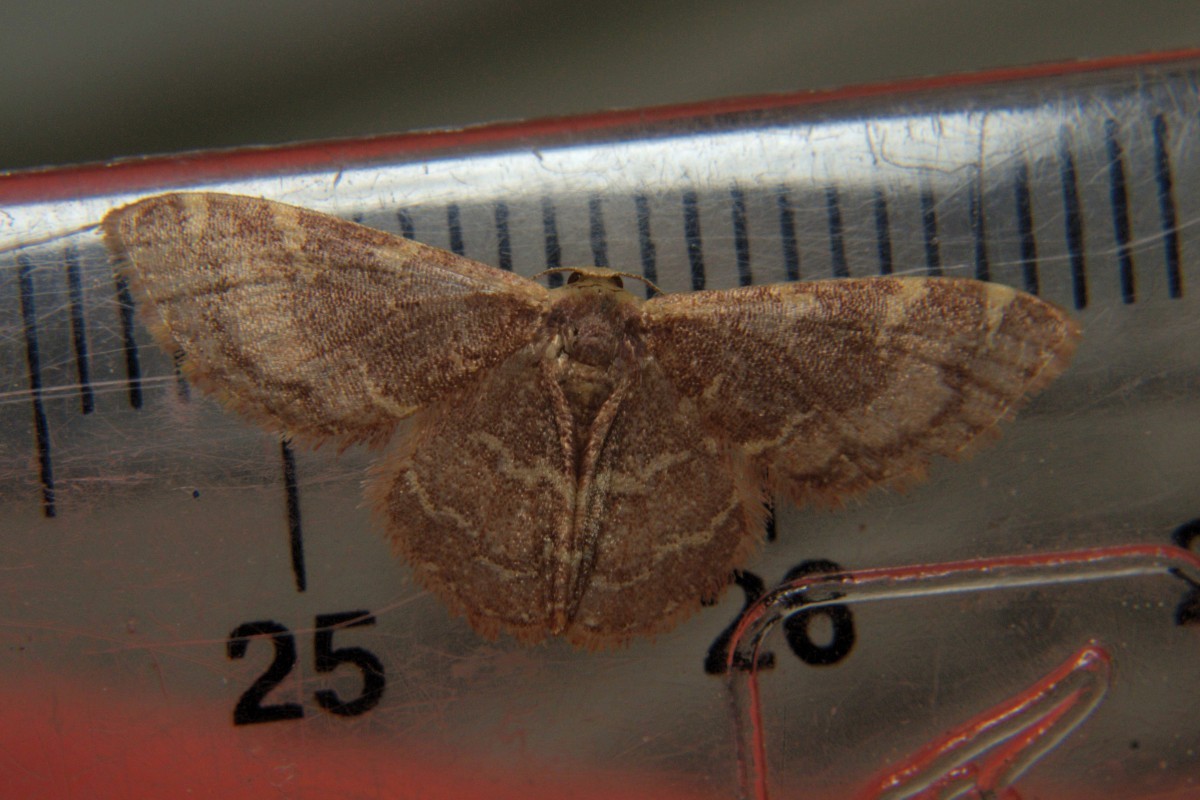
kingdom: Animalia
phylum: Arthropoda
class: Insecta
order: Lepidoptera
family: Geometridae
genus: Idaea
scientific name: Idaea insuavis
